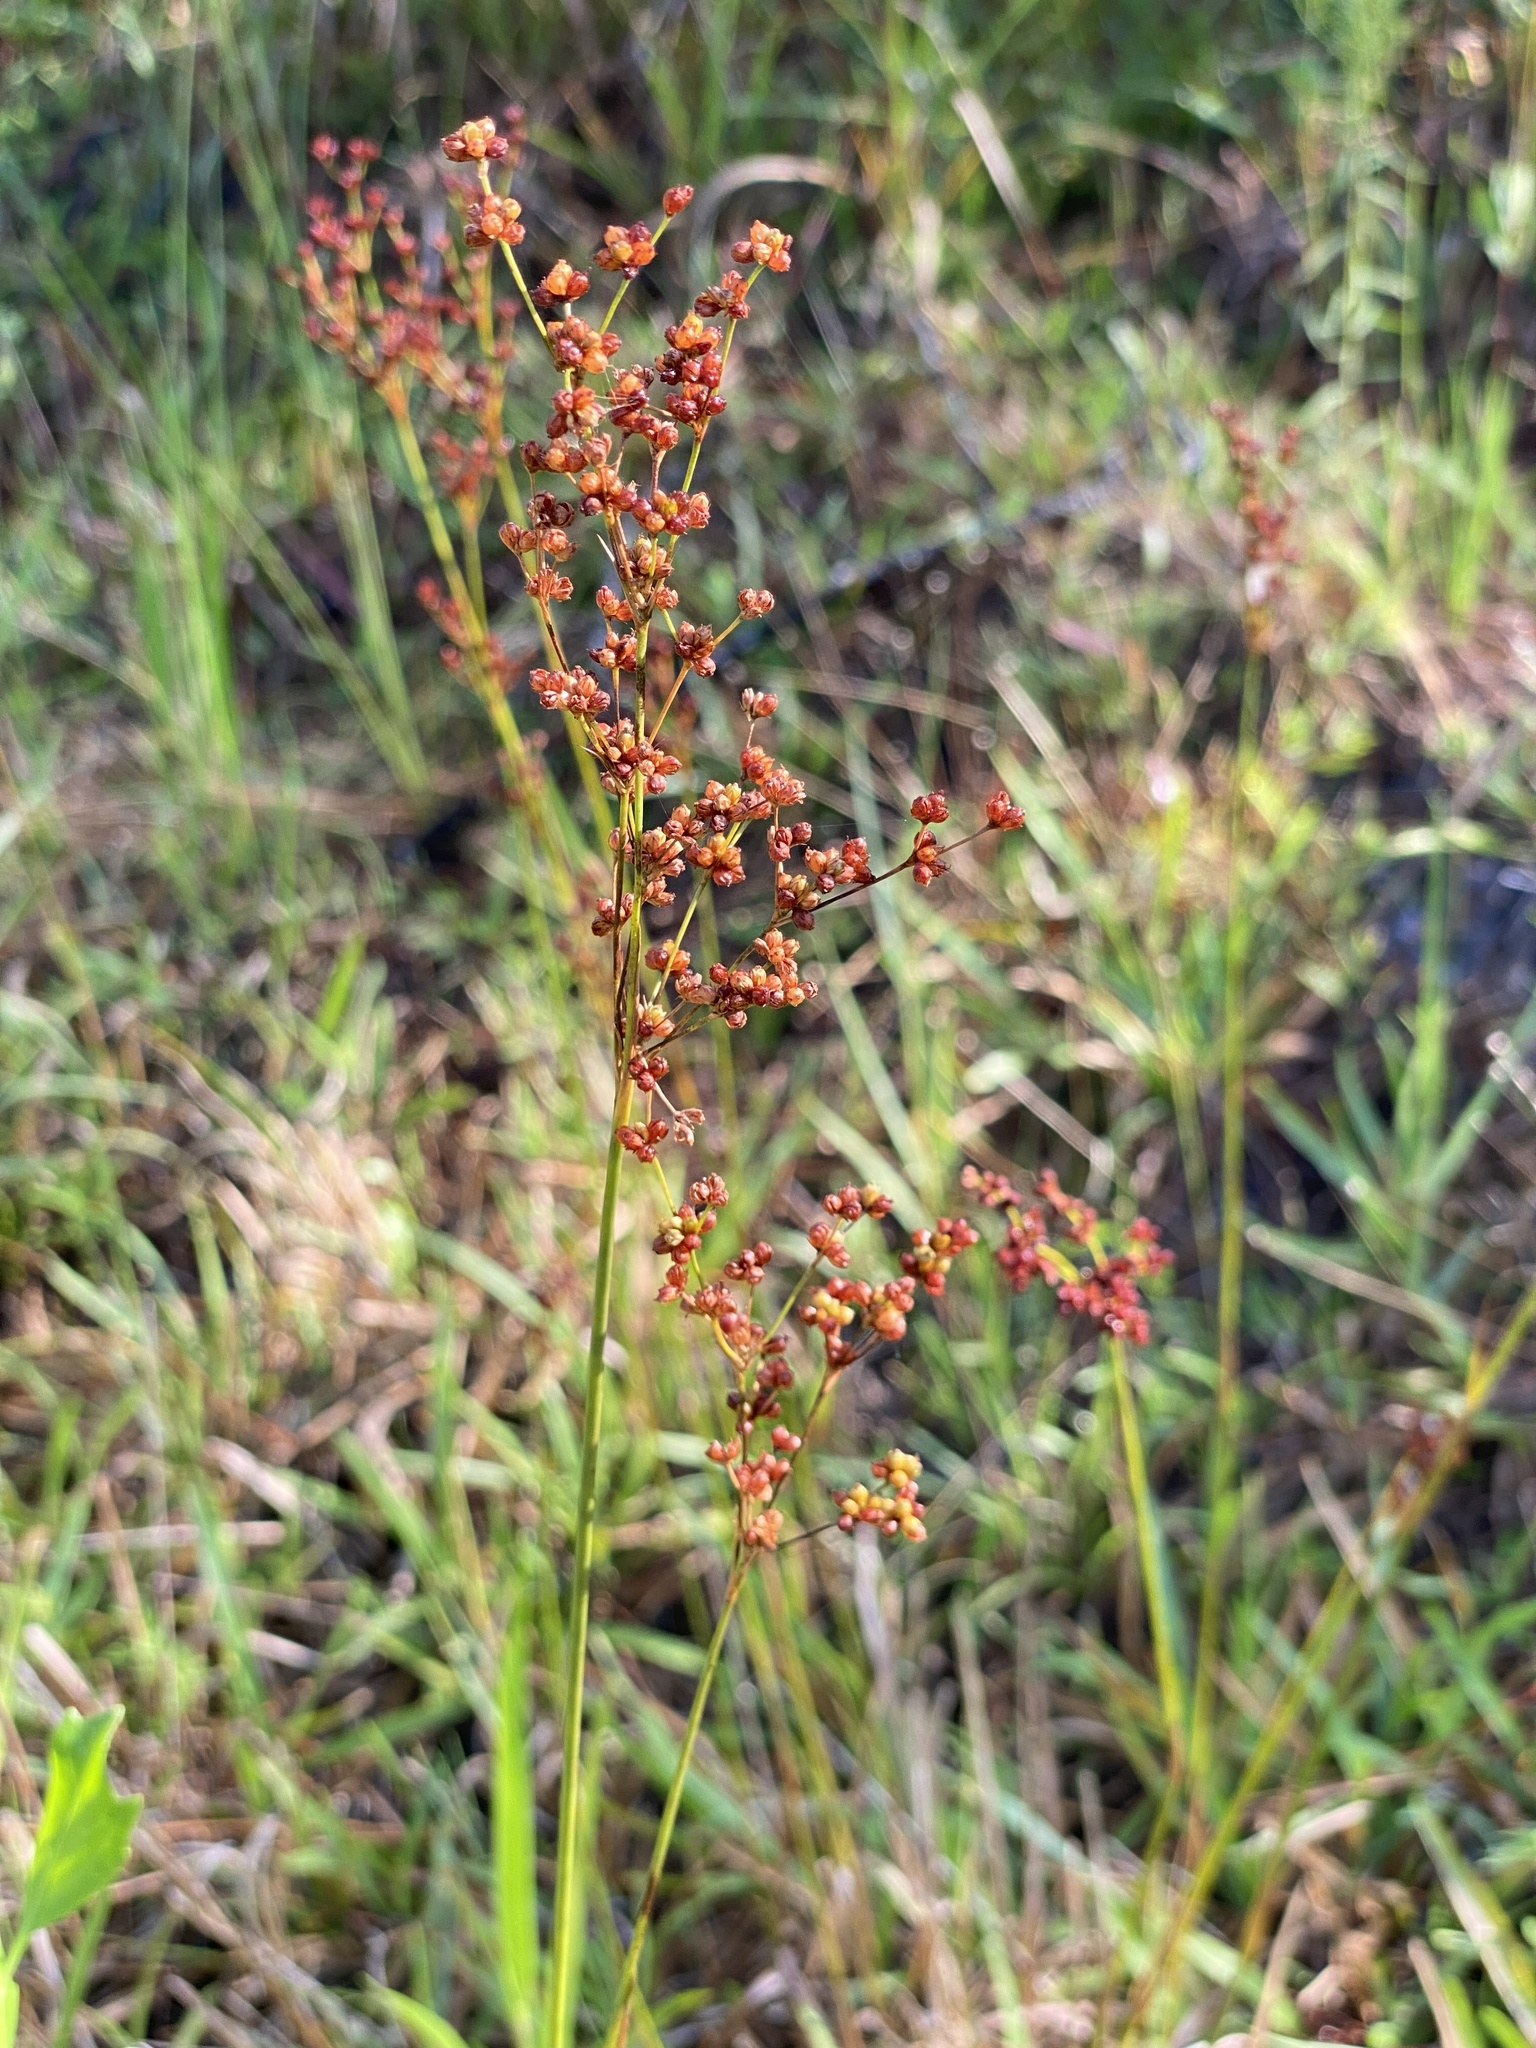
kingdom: Plantae
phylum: Tracheophyta
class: Liliopsida
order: Poales
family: Juncaceae
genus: Juncus
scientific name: Juncus biflorus
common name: Two-flowered rush
